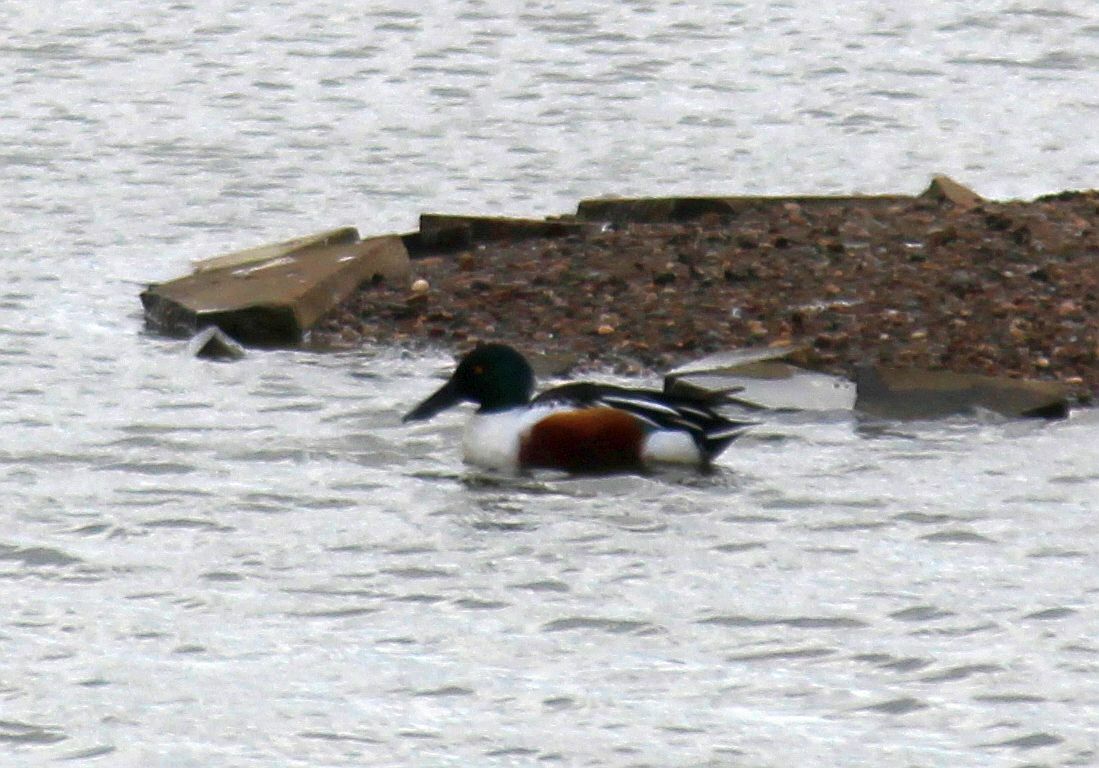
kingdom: Animalia
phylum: Chordata
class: Aves
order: Anseriformes
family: Anatidae
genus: Spatula
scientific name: Spatula clypeata
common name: Northern shoveler
